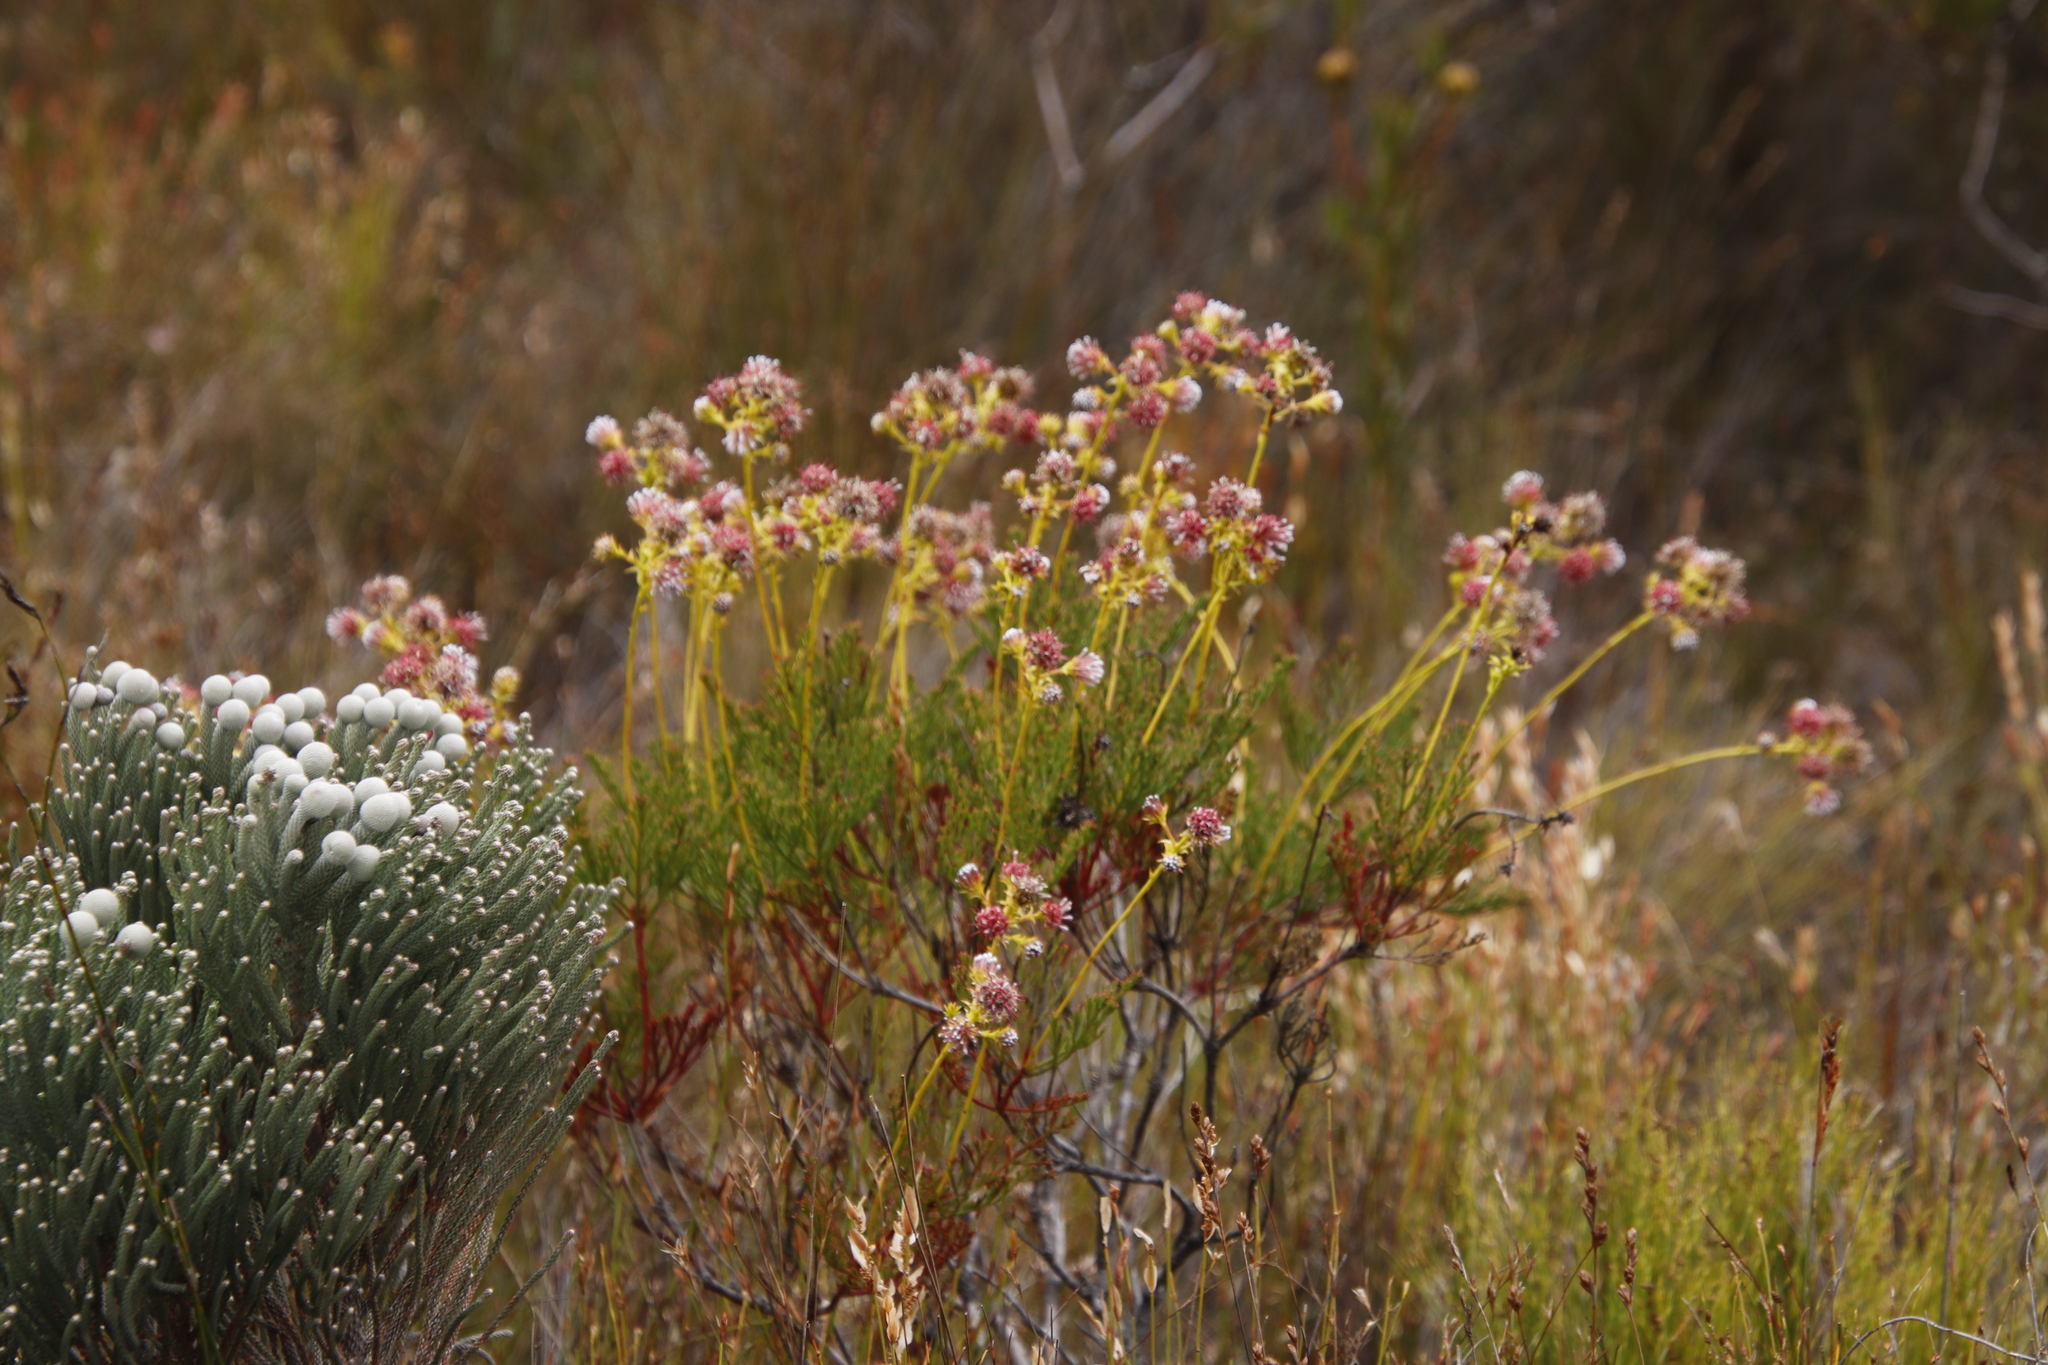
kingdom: Plantae
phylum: Tracheophyta
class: Magnoliopsida
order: Proteales
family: Proteaceae
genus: Serruria
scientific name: Serruria elongata
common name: Long-stalk spiderhead
